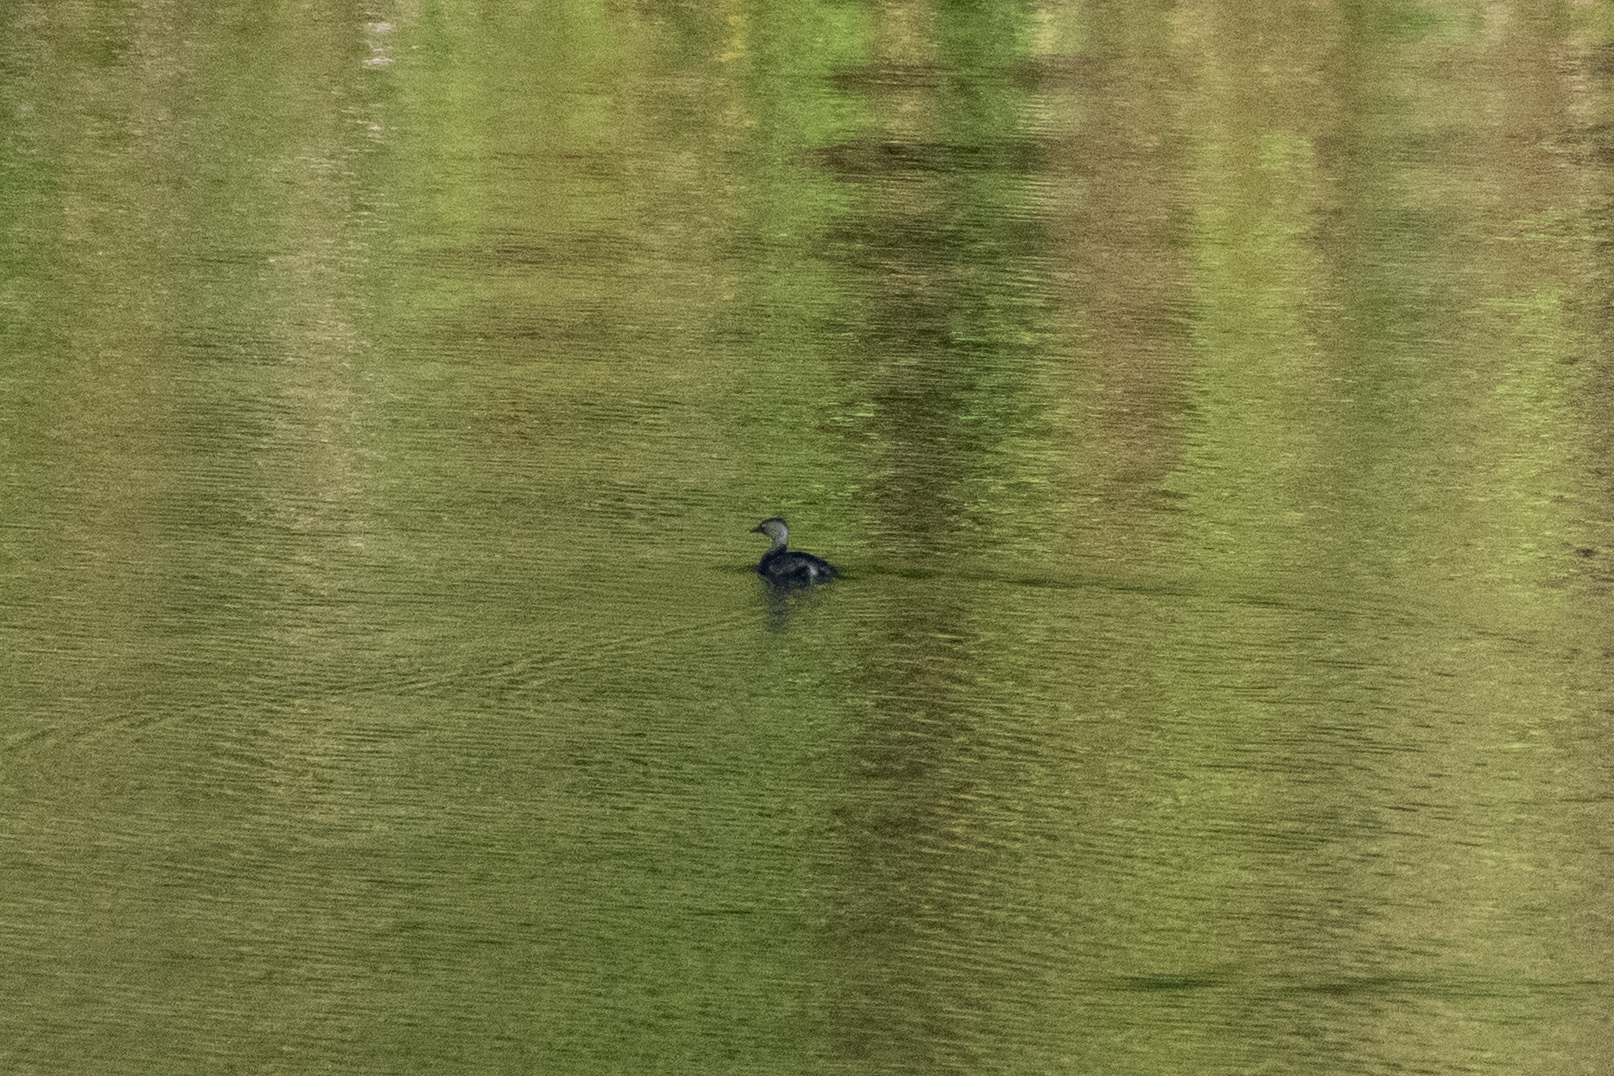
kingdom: Animalia
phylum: Chordata
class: Aves
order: Podicipediformes
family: Podicipedidae
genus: Tachybaptus
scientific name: Tachybaptus dominicus
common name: Least grebe
